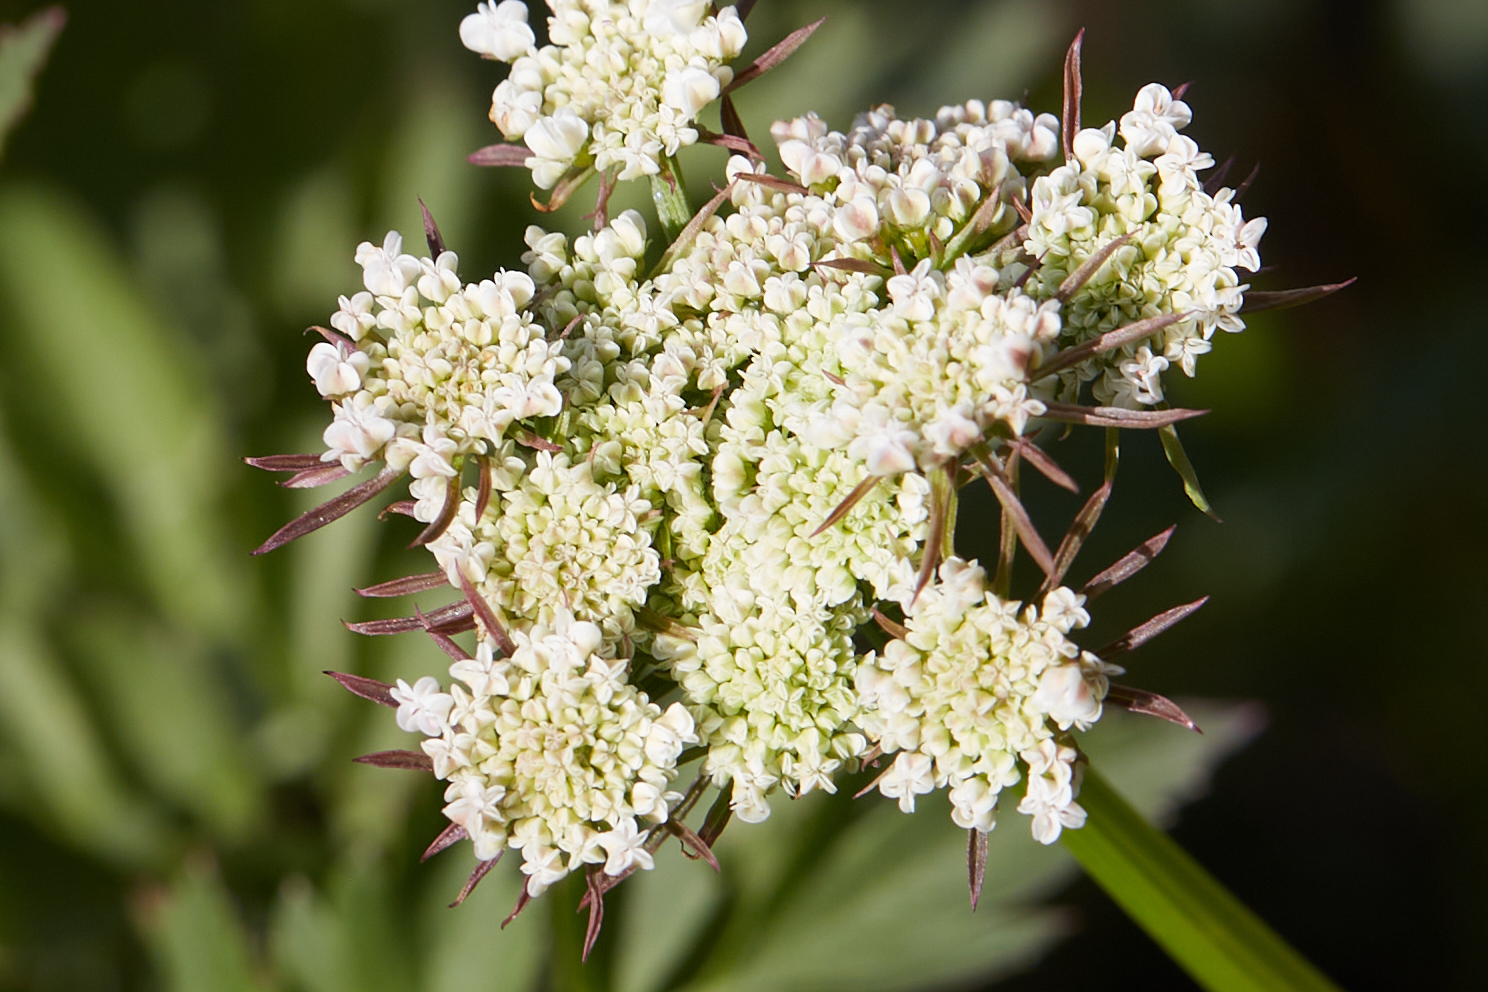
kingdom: Plantae
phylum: Tracheophyta
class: Magnoliopsida
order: Apiales
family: Apiaceae
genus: Oenanthe
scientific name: Oenanthe sarmentosa
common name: American water-parsley
